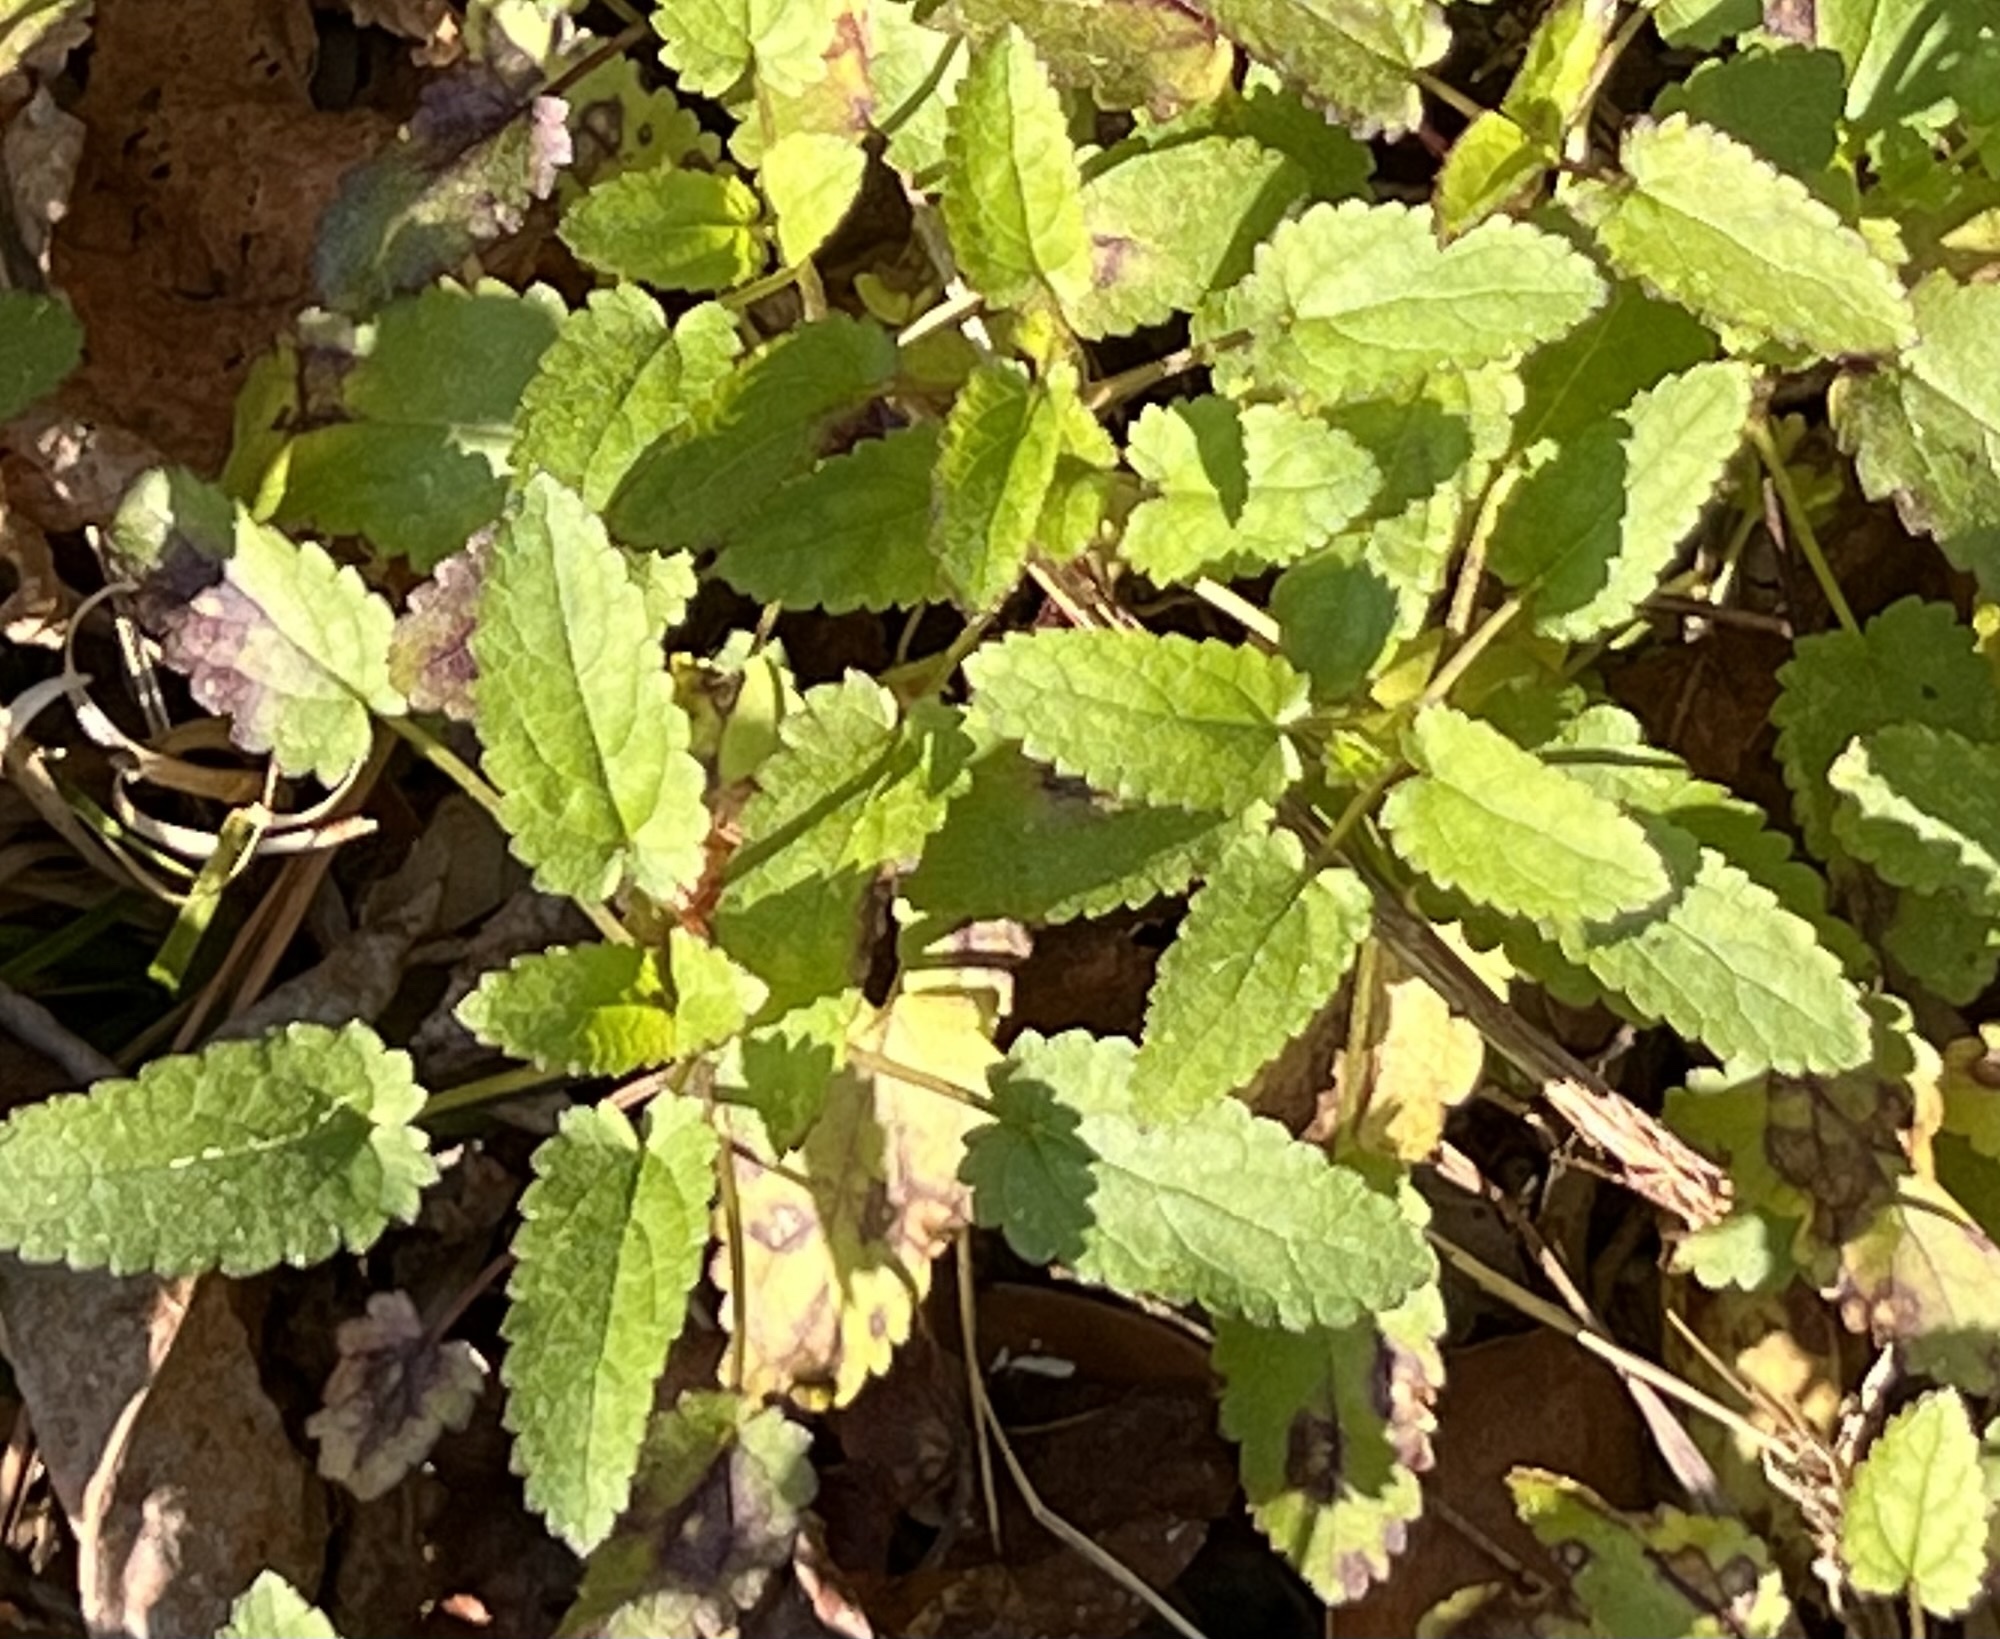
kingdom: Plantae
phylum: Tracheophyta
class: Magnoliopsida
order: Lamiales
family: Lamiaceae
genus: Stachys
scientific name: Stachys floridana
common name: Florida betony
